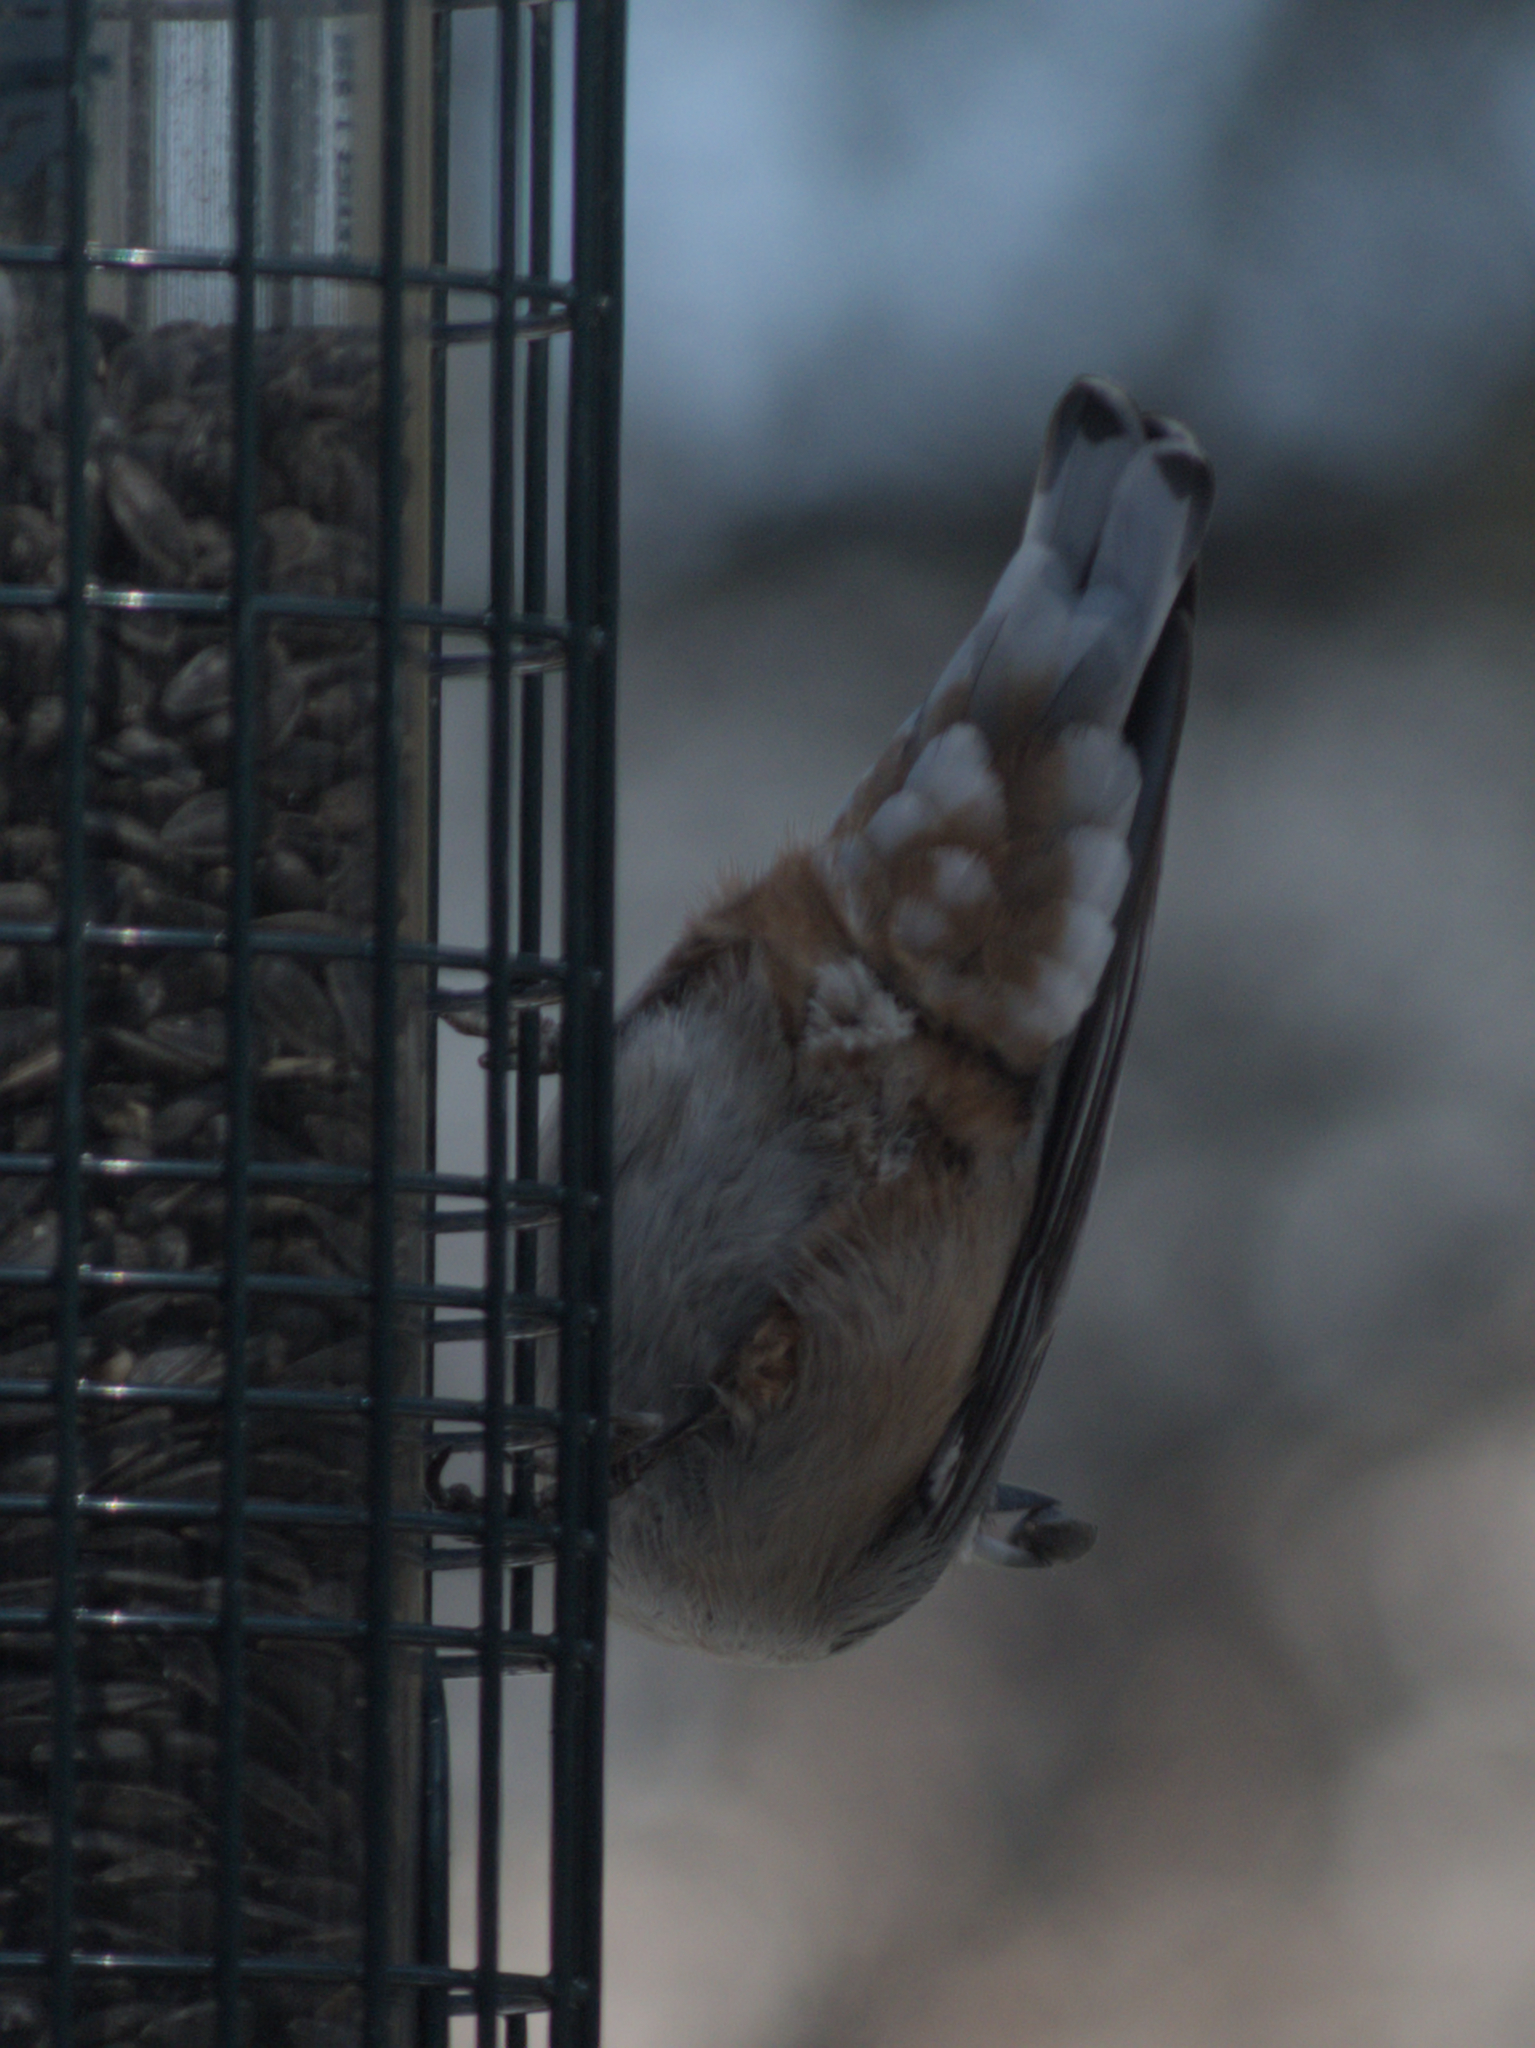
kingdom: Animalia
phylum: Chordata
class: Aves
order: Passeriformes
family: Sittidae
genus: Sitta
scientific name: Sitta carolinensis
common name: White-breasted nuthatch
